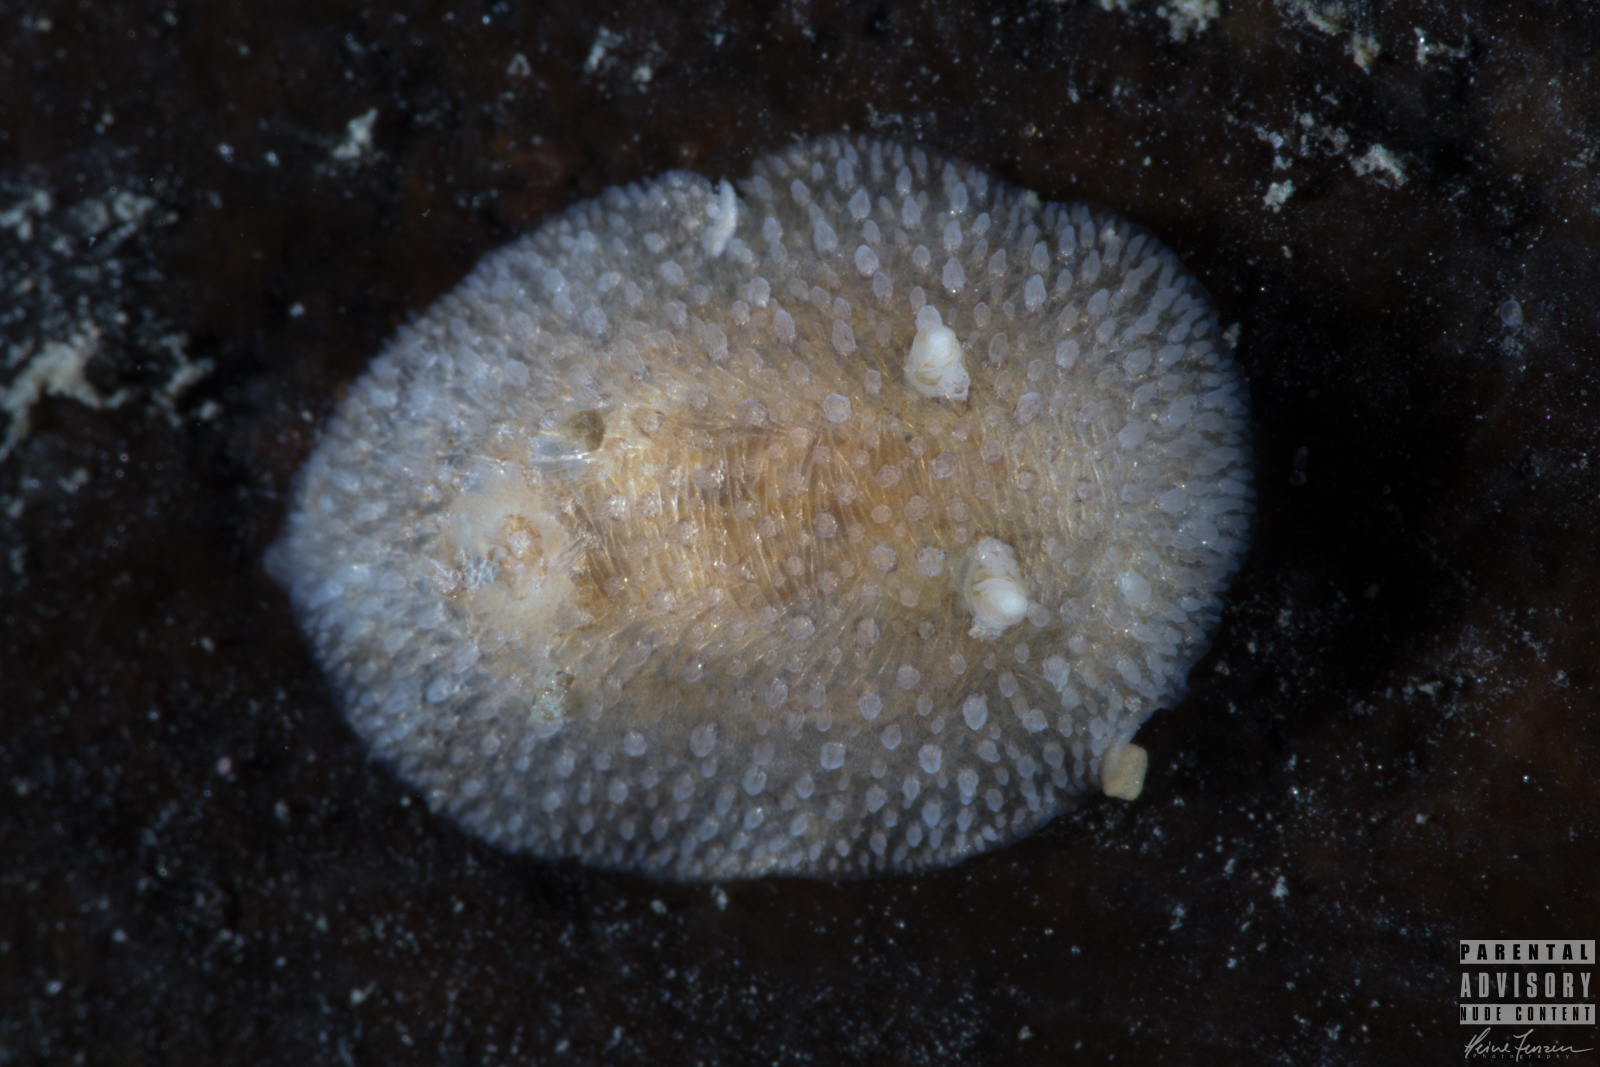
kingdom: Animalia
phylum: Mollusca
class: Gastropoda
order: Nudibranchia
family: Onchidorididae
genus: Atalodoris
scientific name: Atalodoris sparsa
